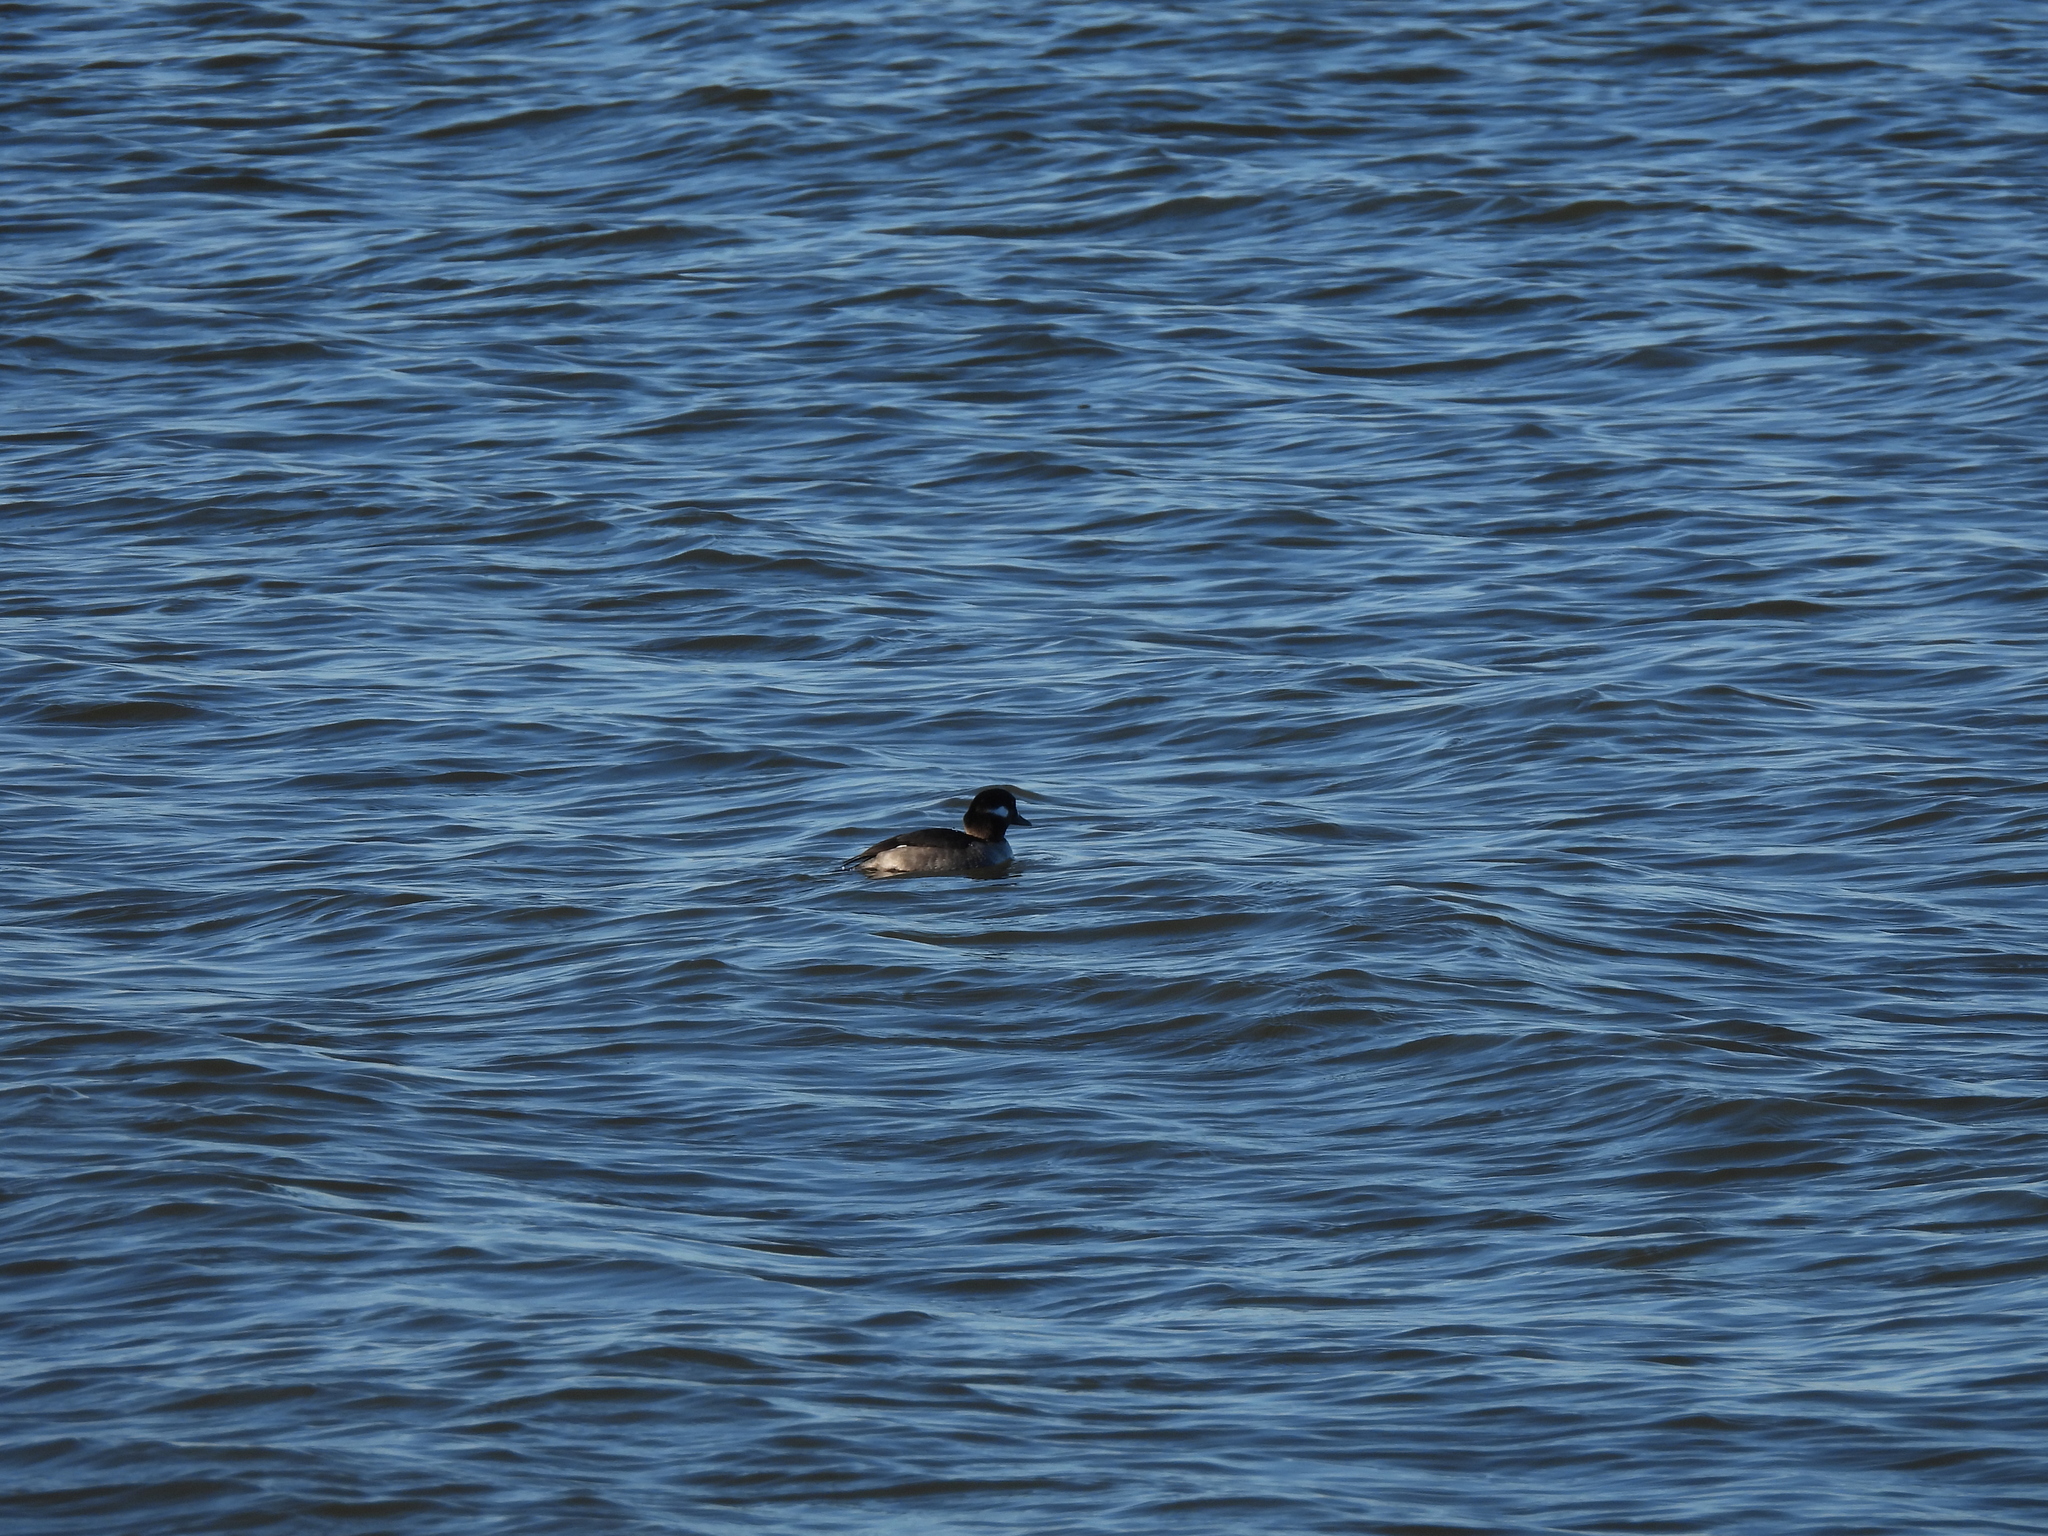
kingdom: Animalia
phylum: Chordata
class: Aves
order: Anseriformes
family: Anatidae
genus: Bucephala
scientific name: Bucephala albeola
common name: Bufflehead
